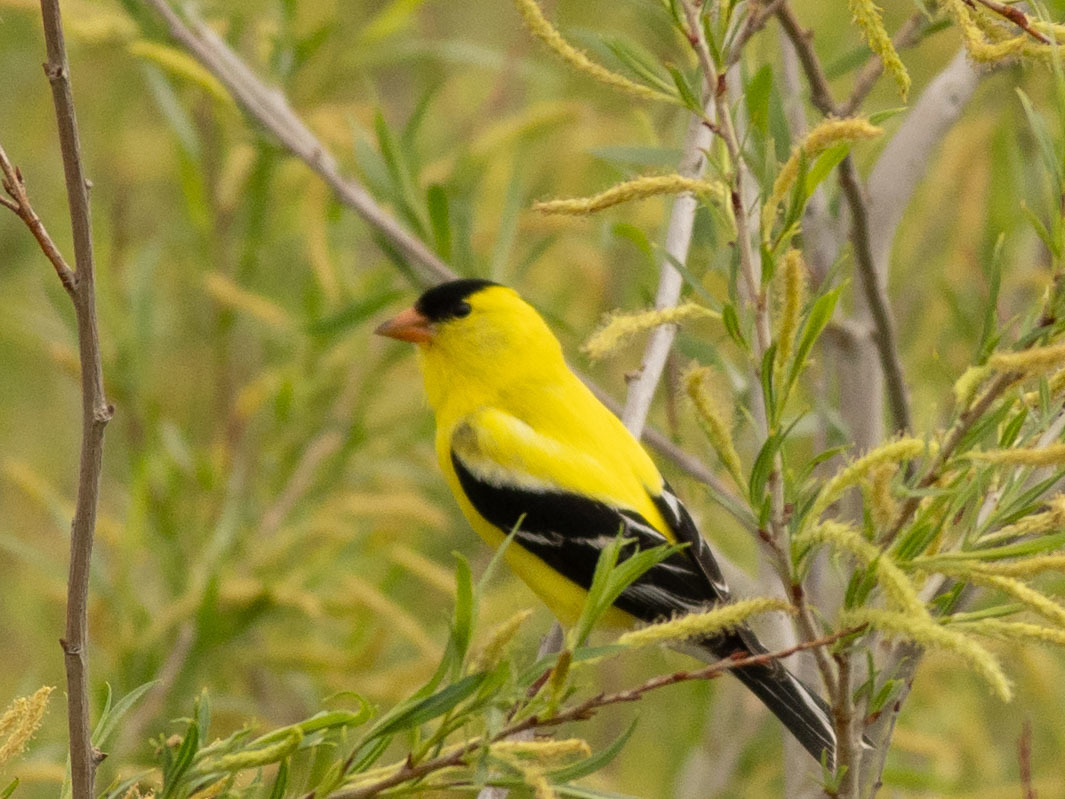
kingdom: Animalia
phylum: Chordata
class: Aves
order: Passeriformes
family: Fringillidae
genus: Spinus
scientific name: Spinus tristis
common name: American goldfinch
